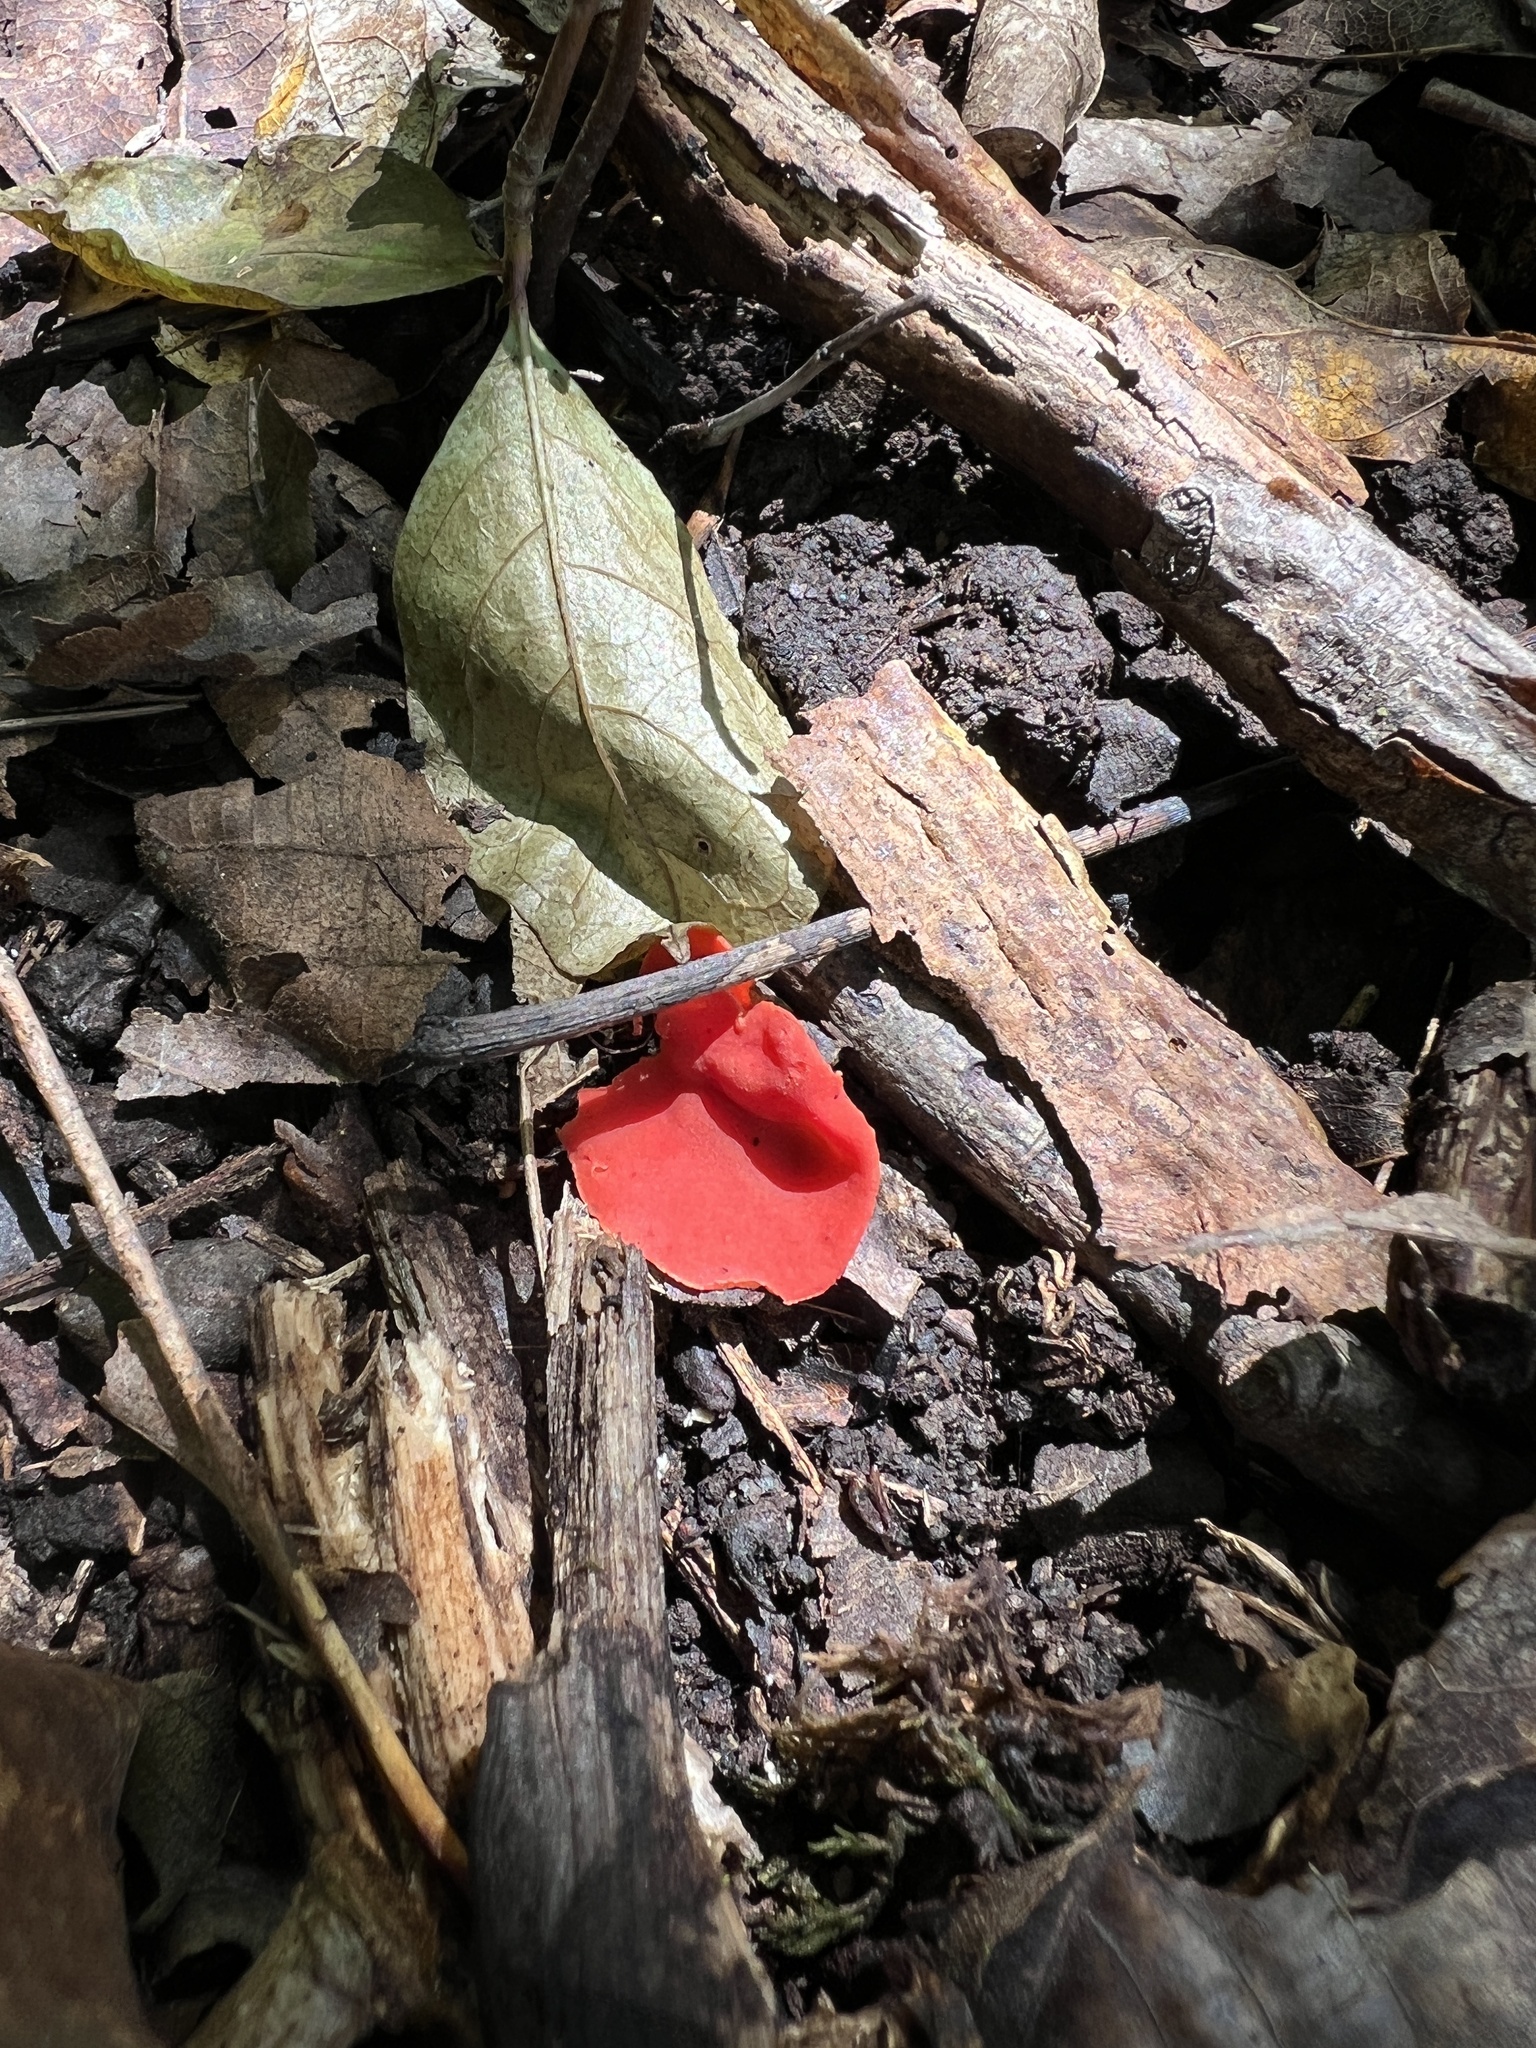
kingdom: Fungi
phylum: Ascomycota
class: Pezizomycetes
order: Pezizales
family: Sarcoscyphaceae
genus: Sarcoscypha
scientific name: Sarcoscypha occidentalis
